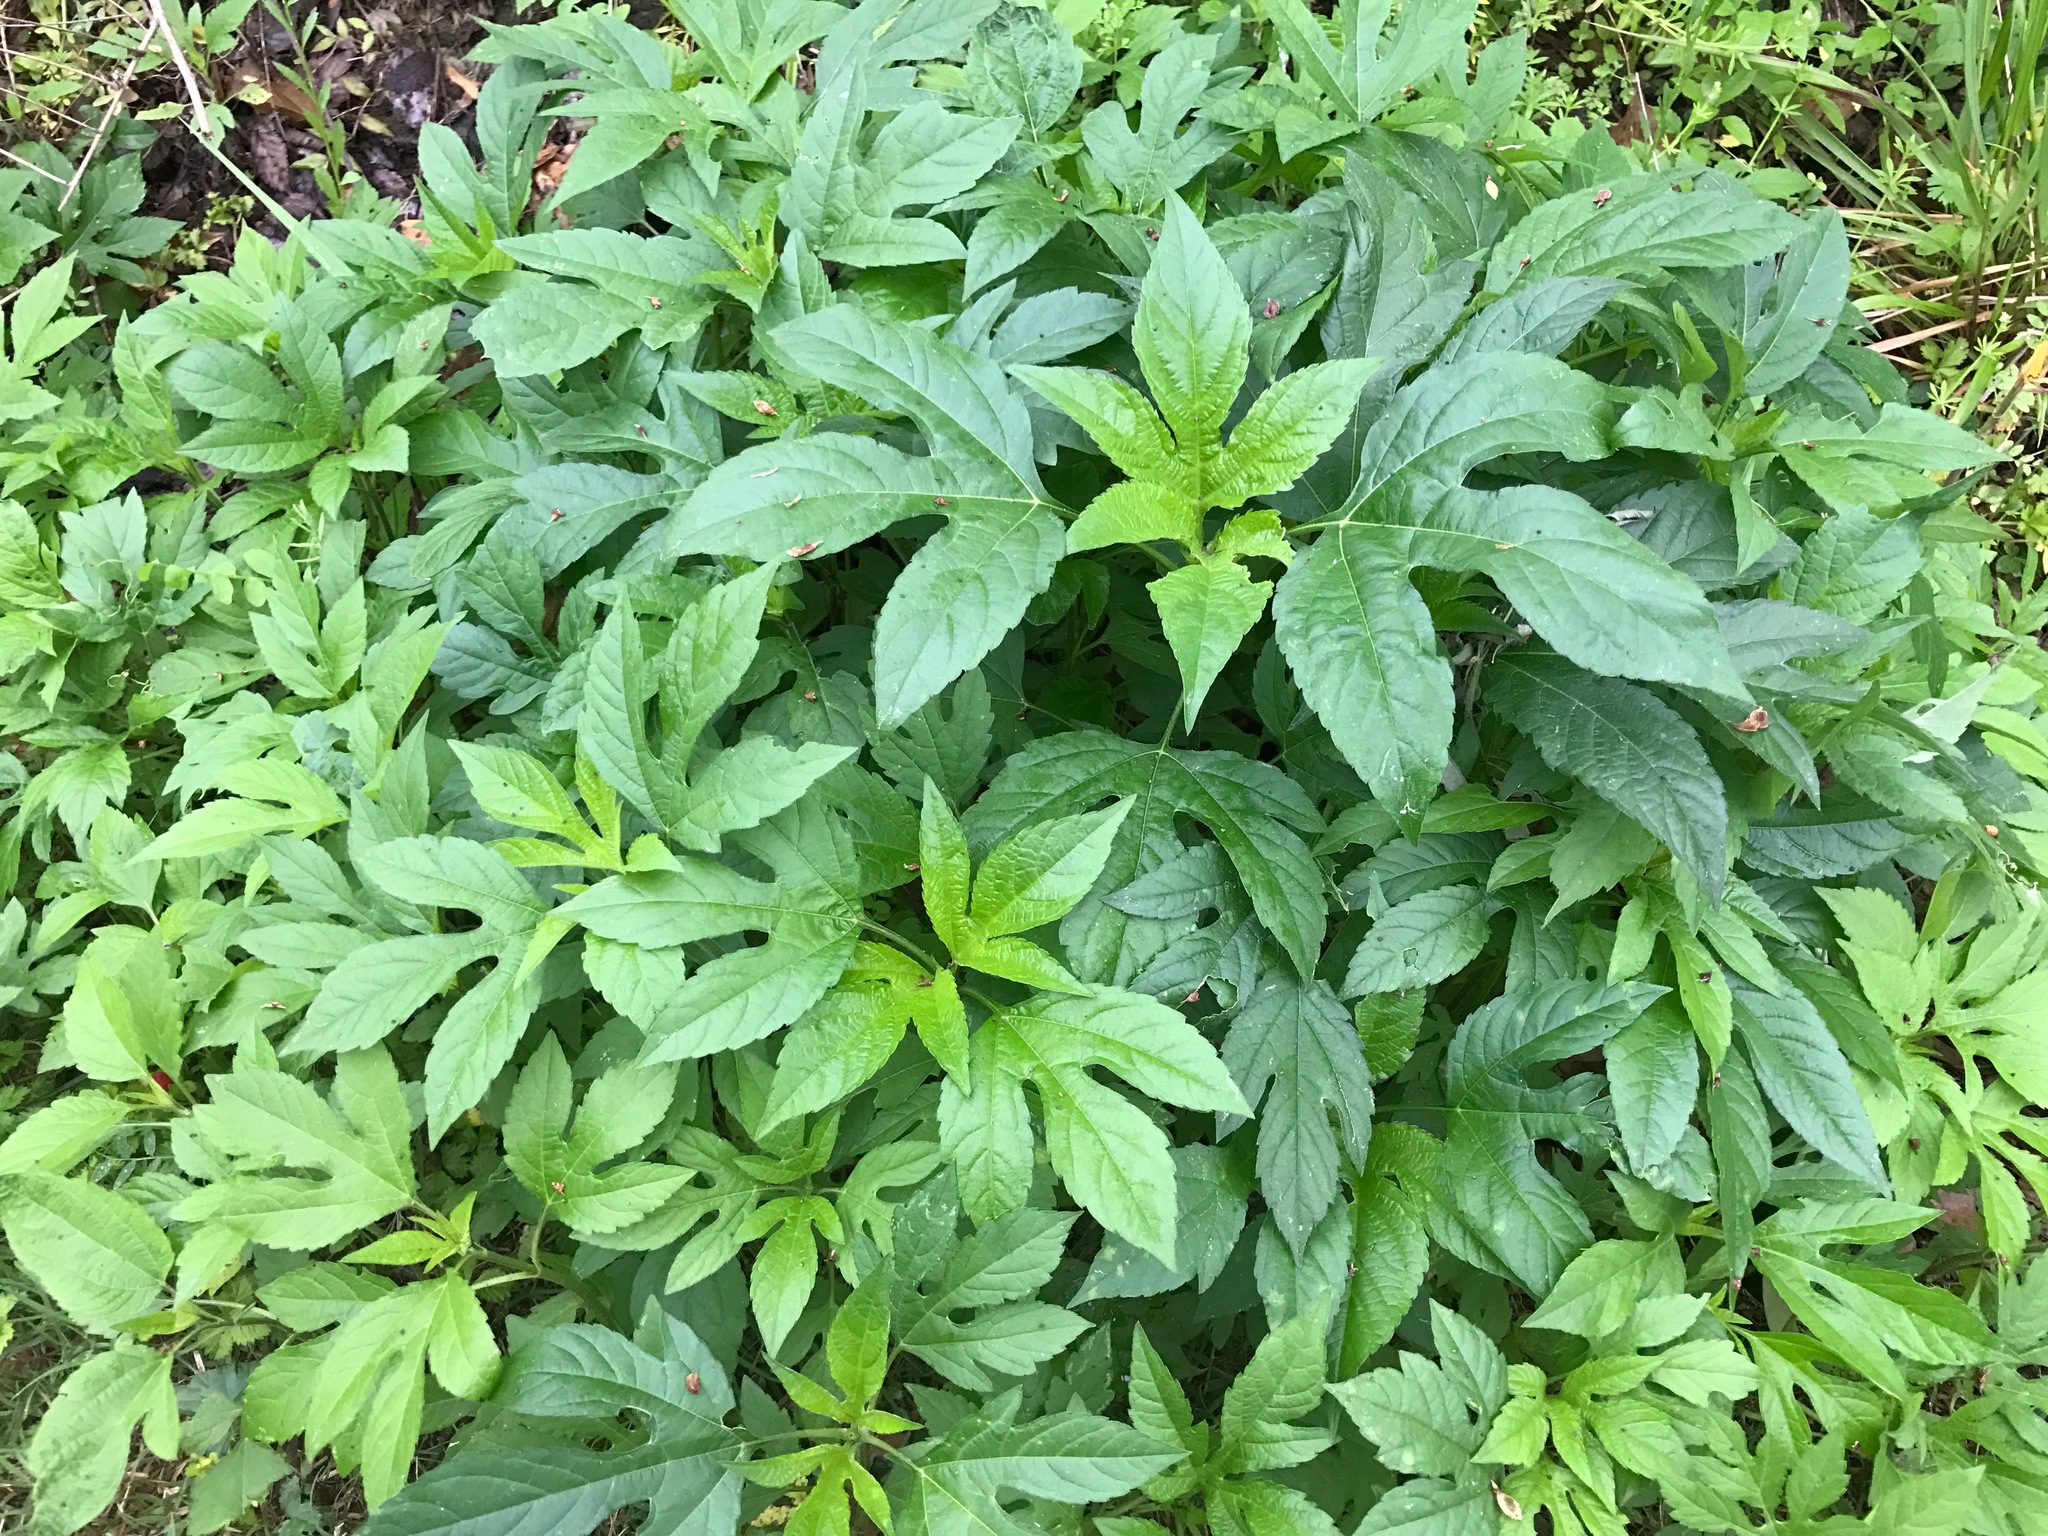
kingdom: Plantae
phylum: Tracheophyta
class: Magnoliopsida
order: Asterales
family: Asteraceae
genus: Ambrosia
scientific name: Ambrosia trifida
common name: Giant ragweed
